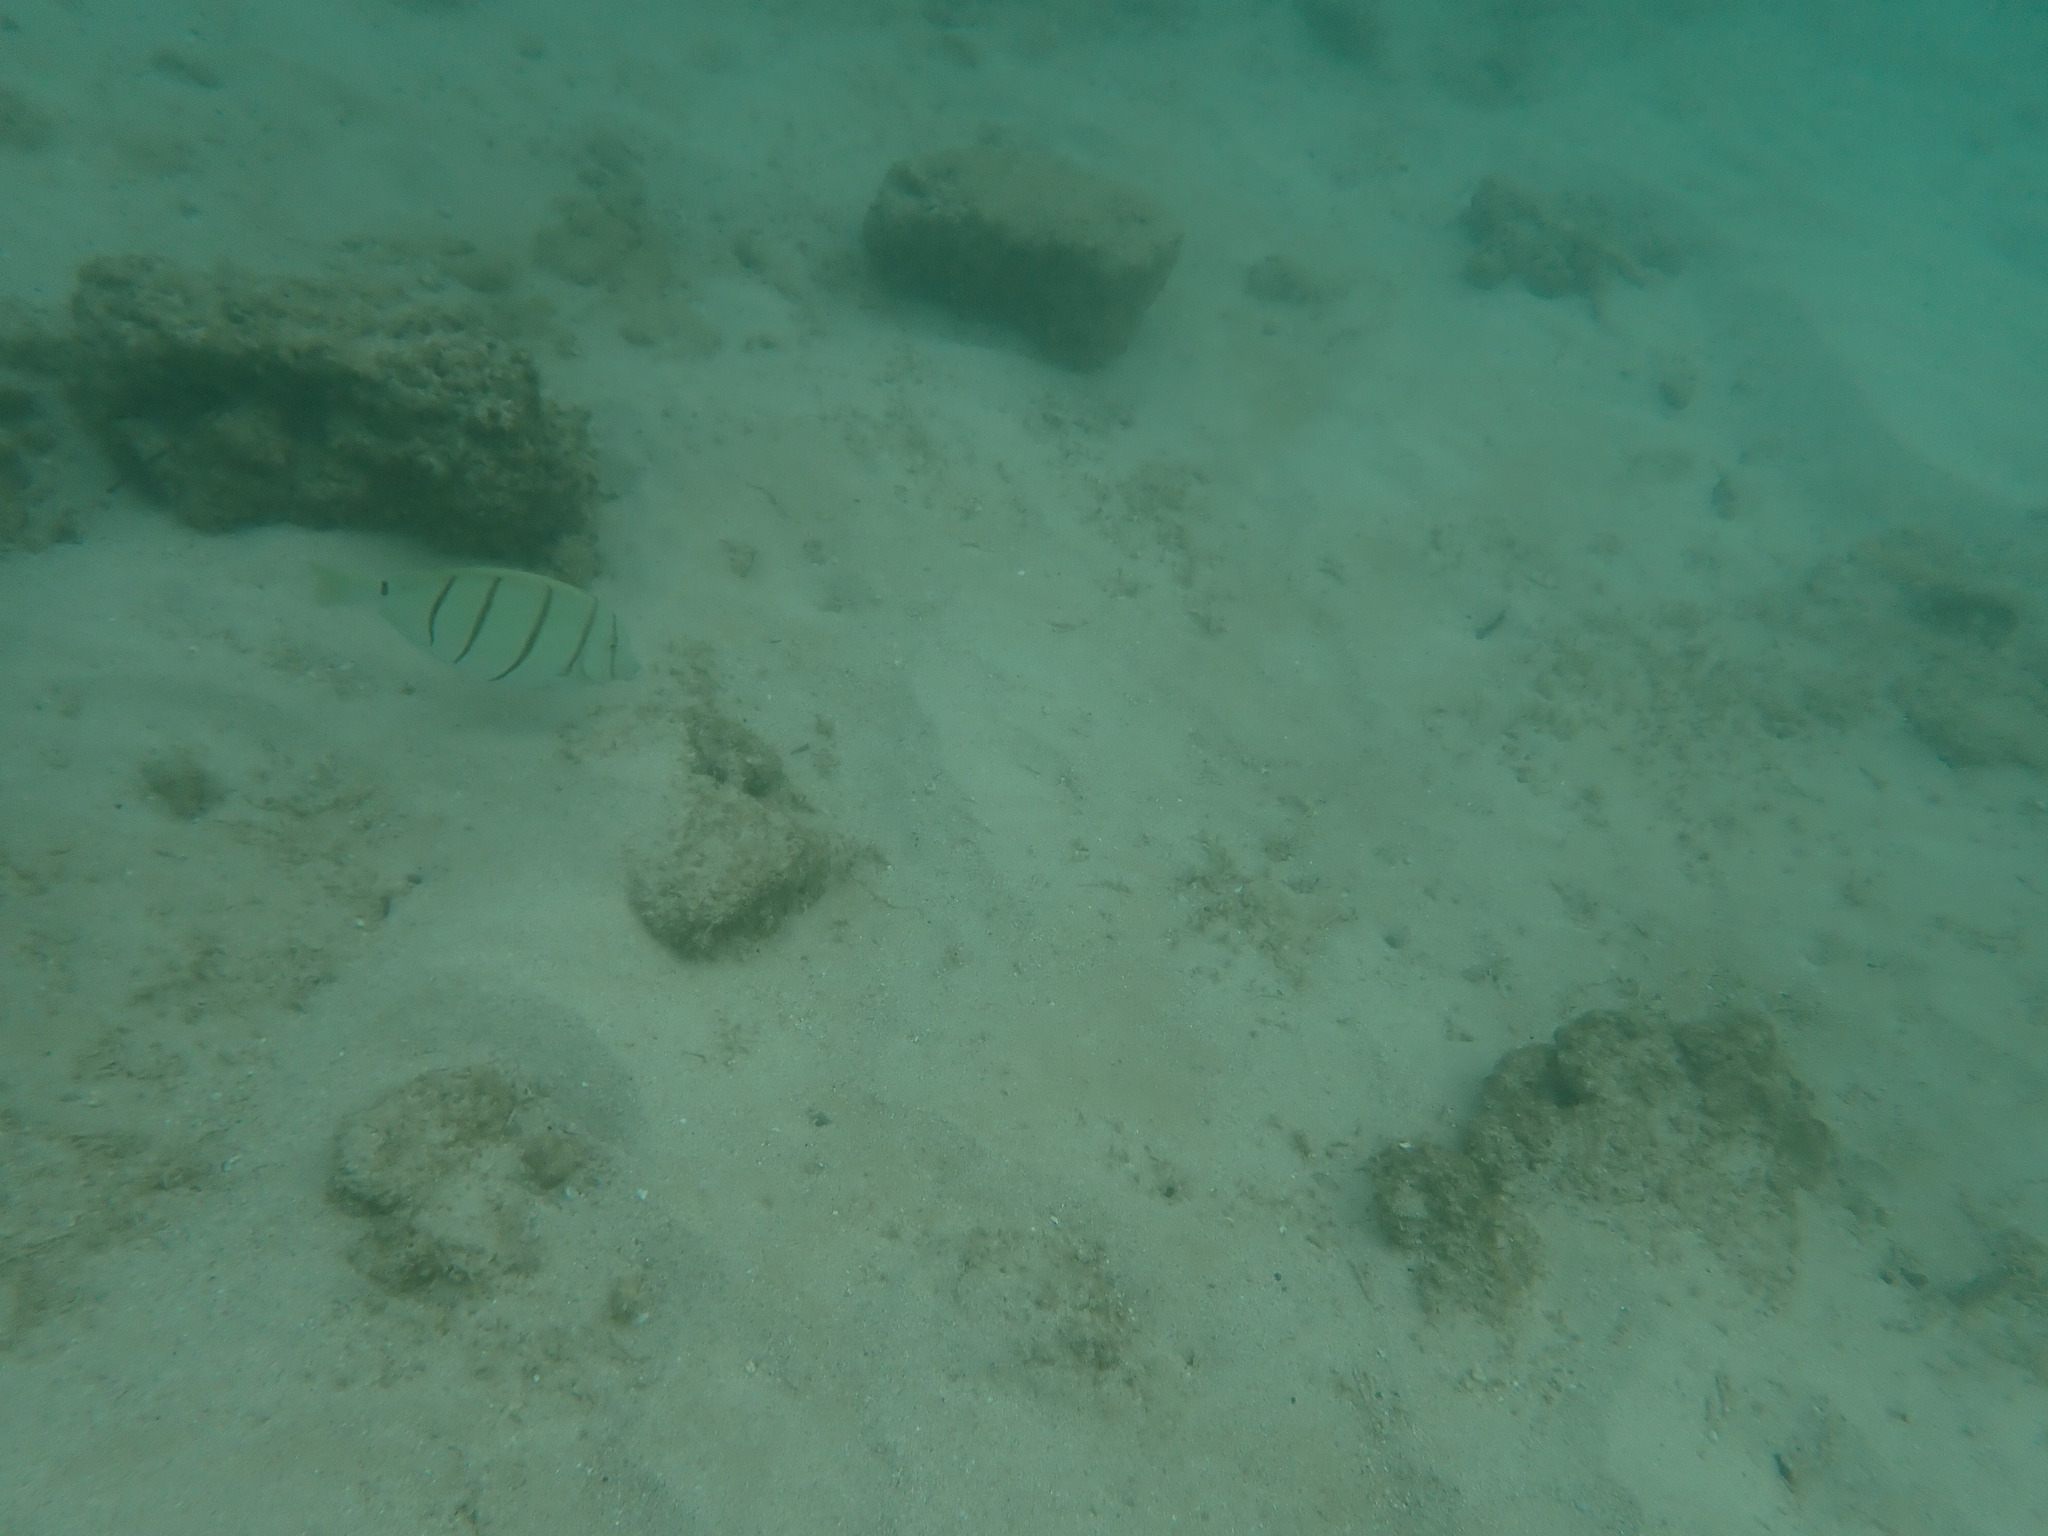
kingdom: Animalia
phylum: Chordata
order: Perciformes
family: Acanthuridae
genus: Acanthurus
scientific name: Acanthurus triostegus
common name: Convict surgeonfish
